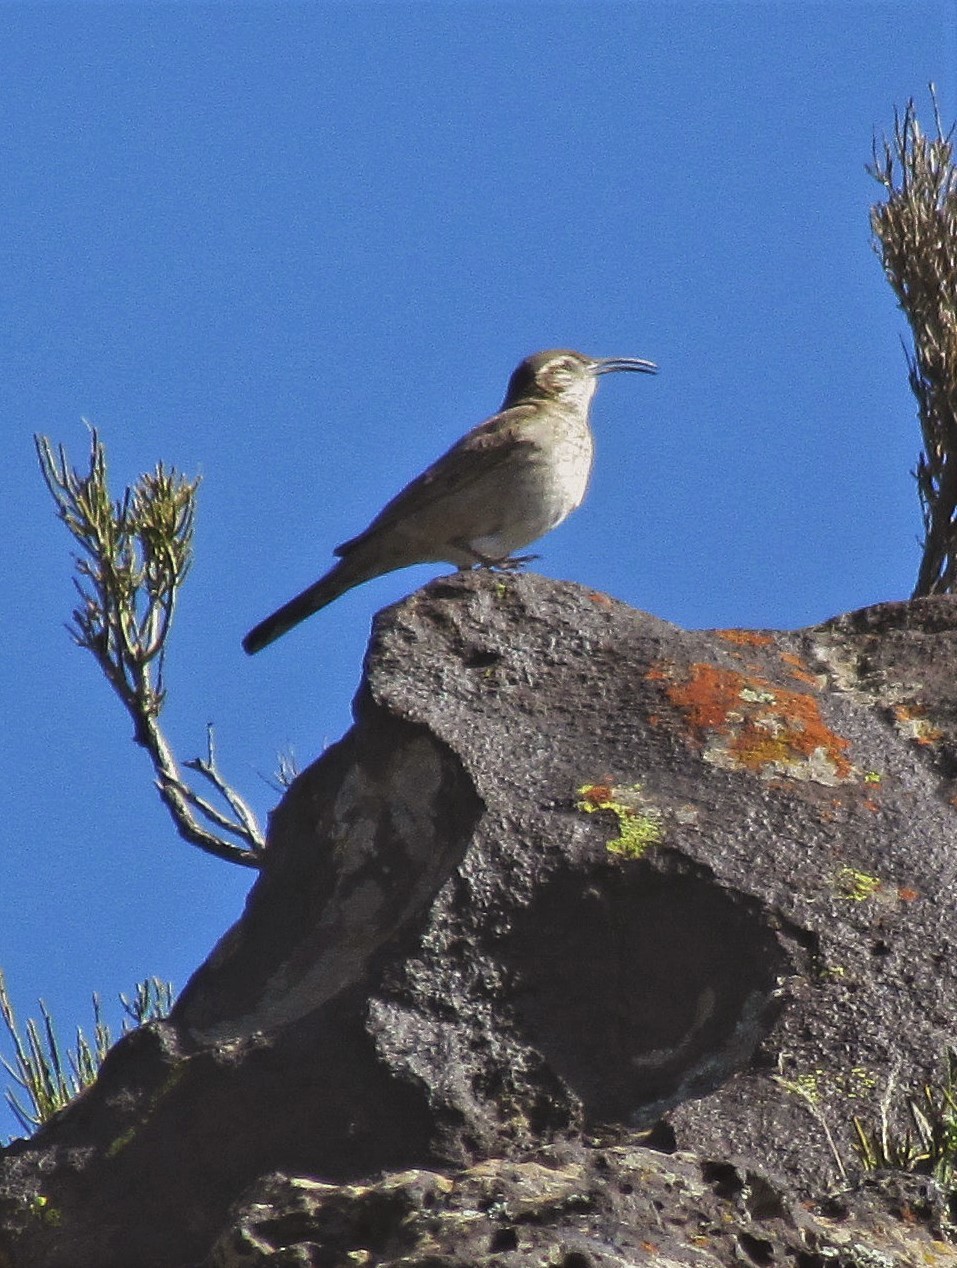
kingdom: Animalia
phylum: Chordata
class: Aves
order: Passeriformes
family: Furnariidae
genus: Upucerthia
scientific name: Upucerthia dumetaria
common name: Scale-throated earthcreeper
